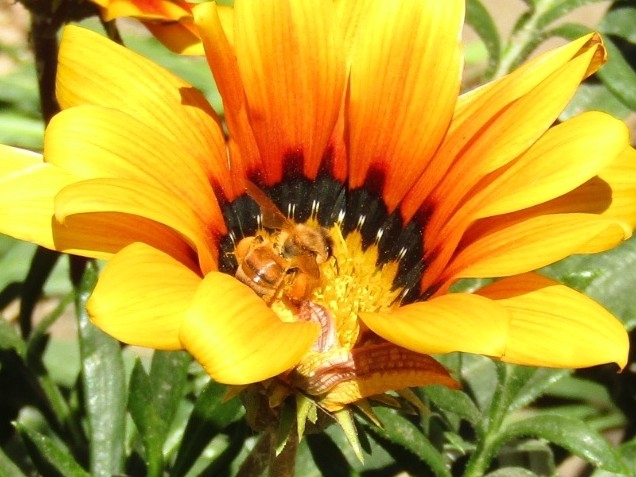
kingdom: Animalia
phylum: Arthropoda
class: Insecta
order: Hymenoptera
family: Apidae
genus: Apis
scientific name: Apis mellifera
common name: Honey bee
